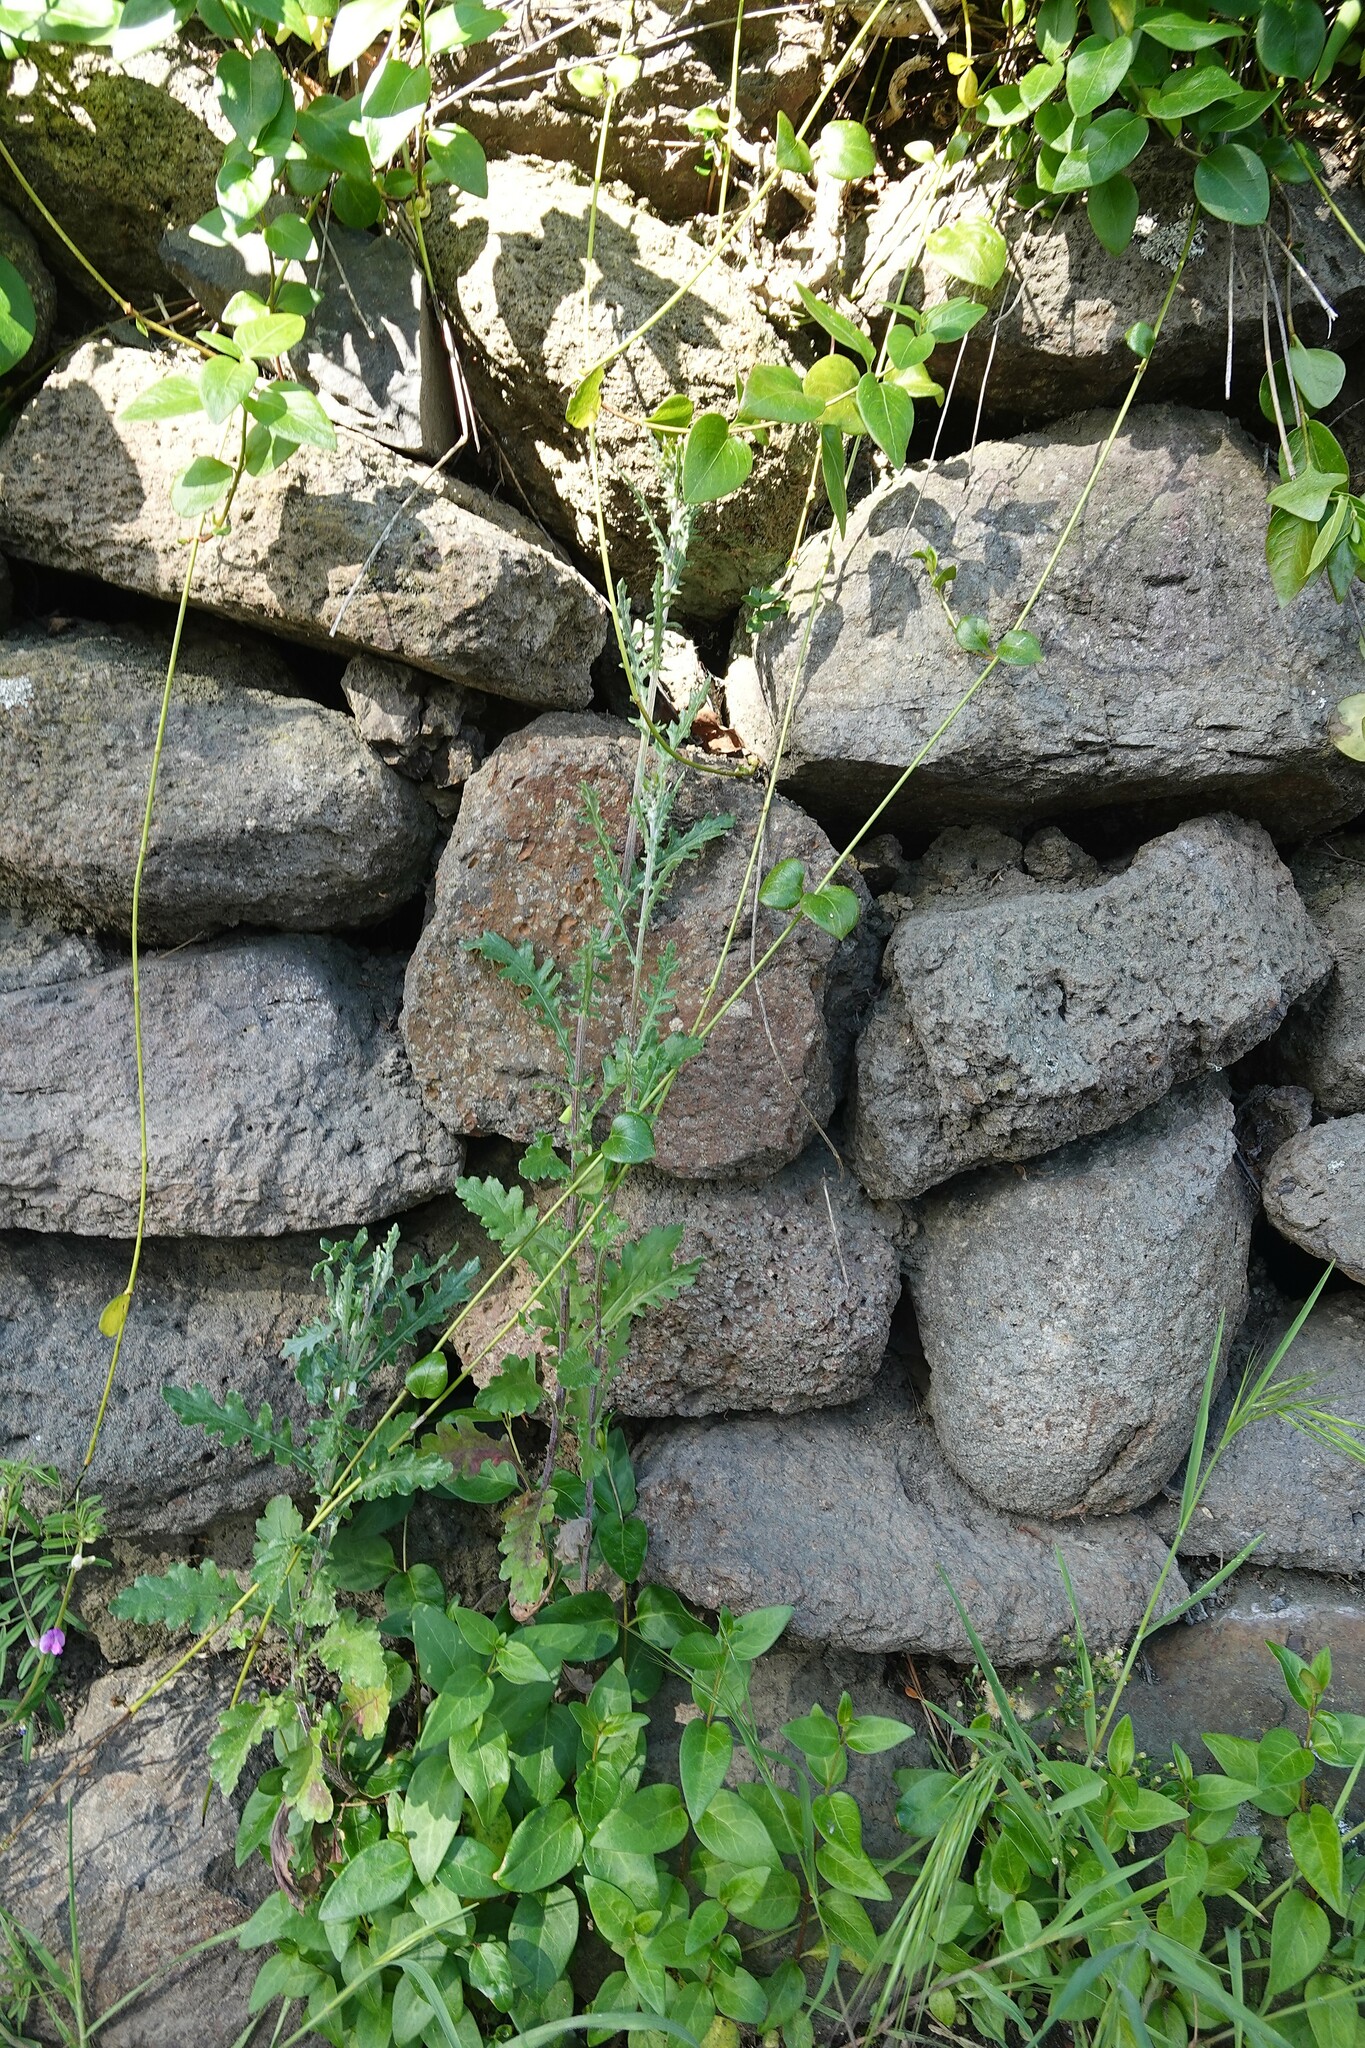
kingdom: Plantae
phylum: Tracheophyta
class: Magnoliopsida
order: Asterales
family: Asteraceae
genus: Senecio
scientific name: Senecio glomeratus
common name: Cutleaf burnweed
